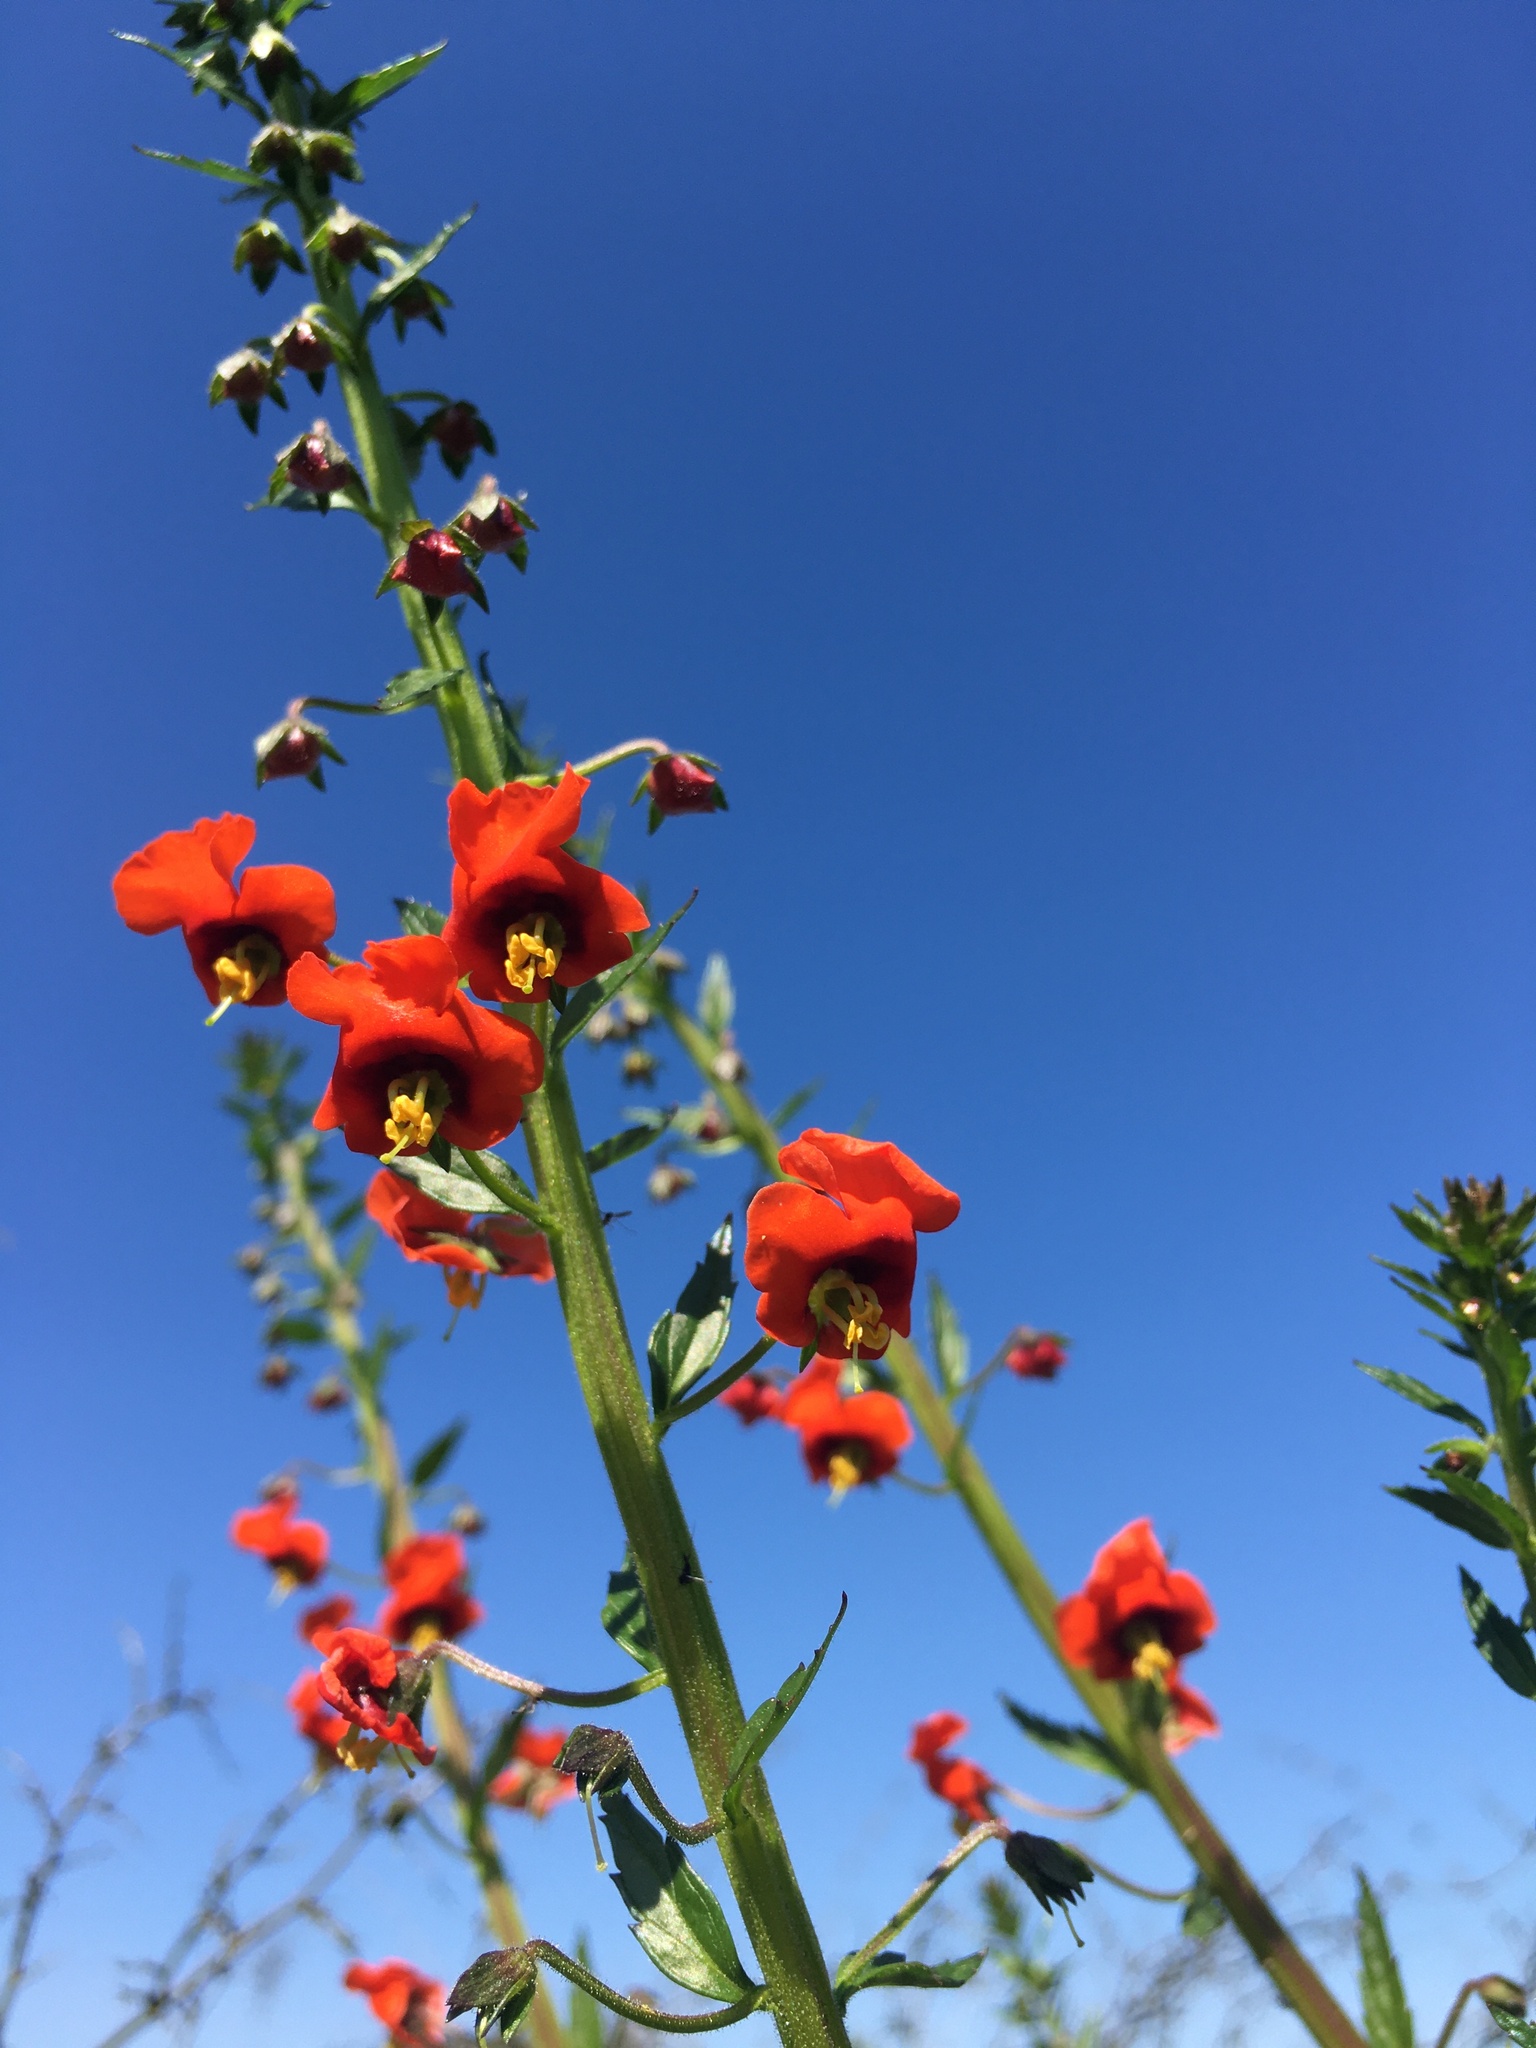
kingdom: Plantae
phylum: Tracheophyta
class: Magnoliopsida
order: Lamiales
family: Scrophulariaceae
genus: Alonsoa
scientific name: Alonsoa meridionalis
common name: Maskflower
